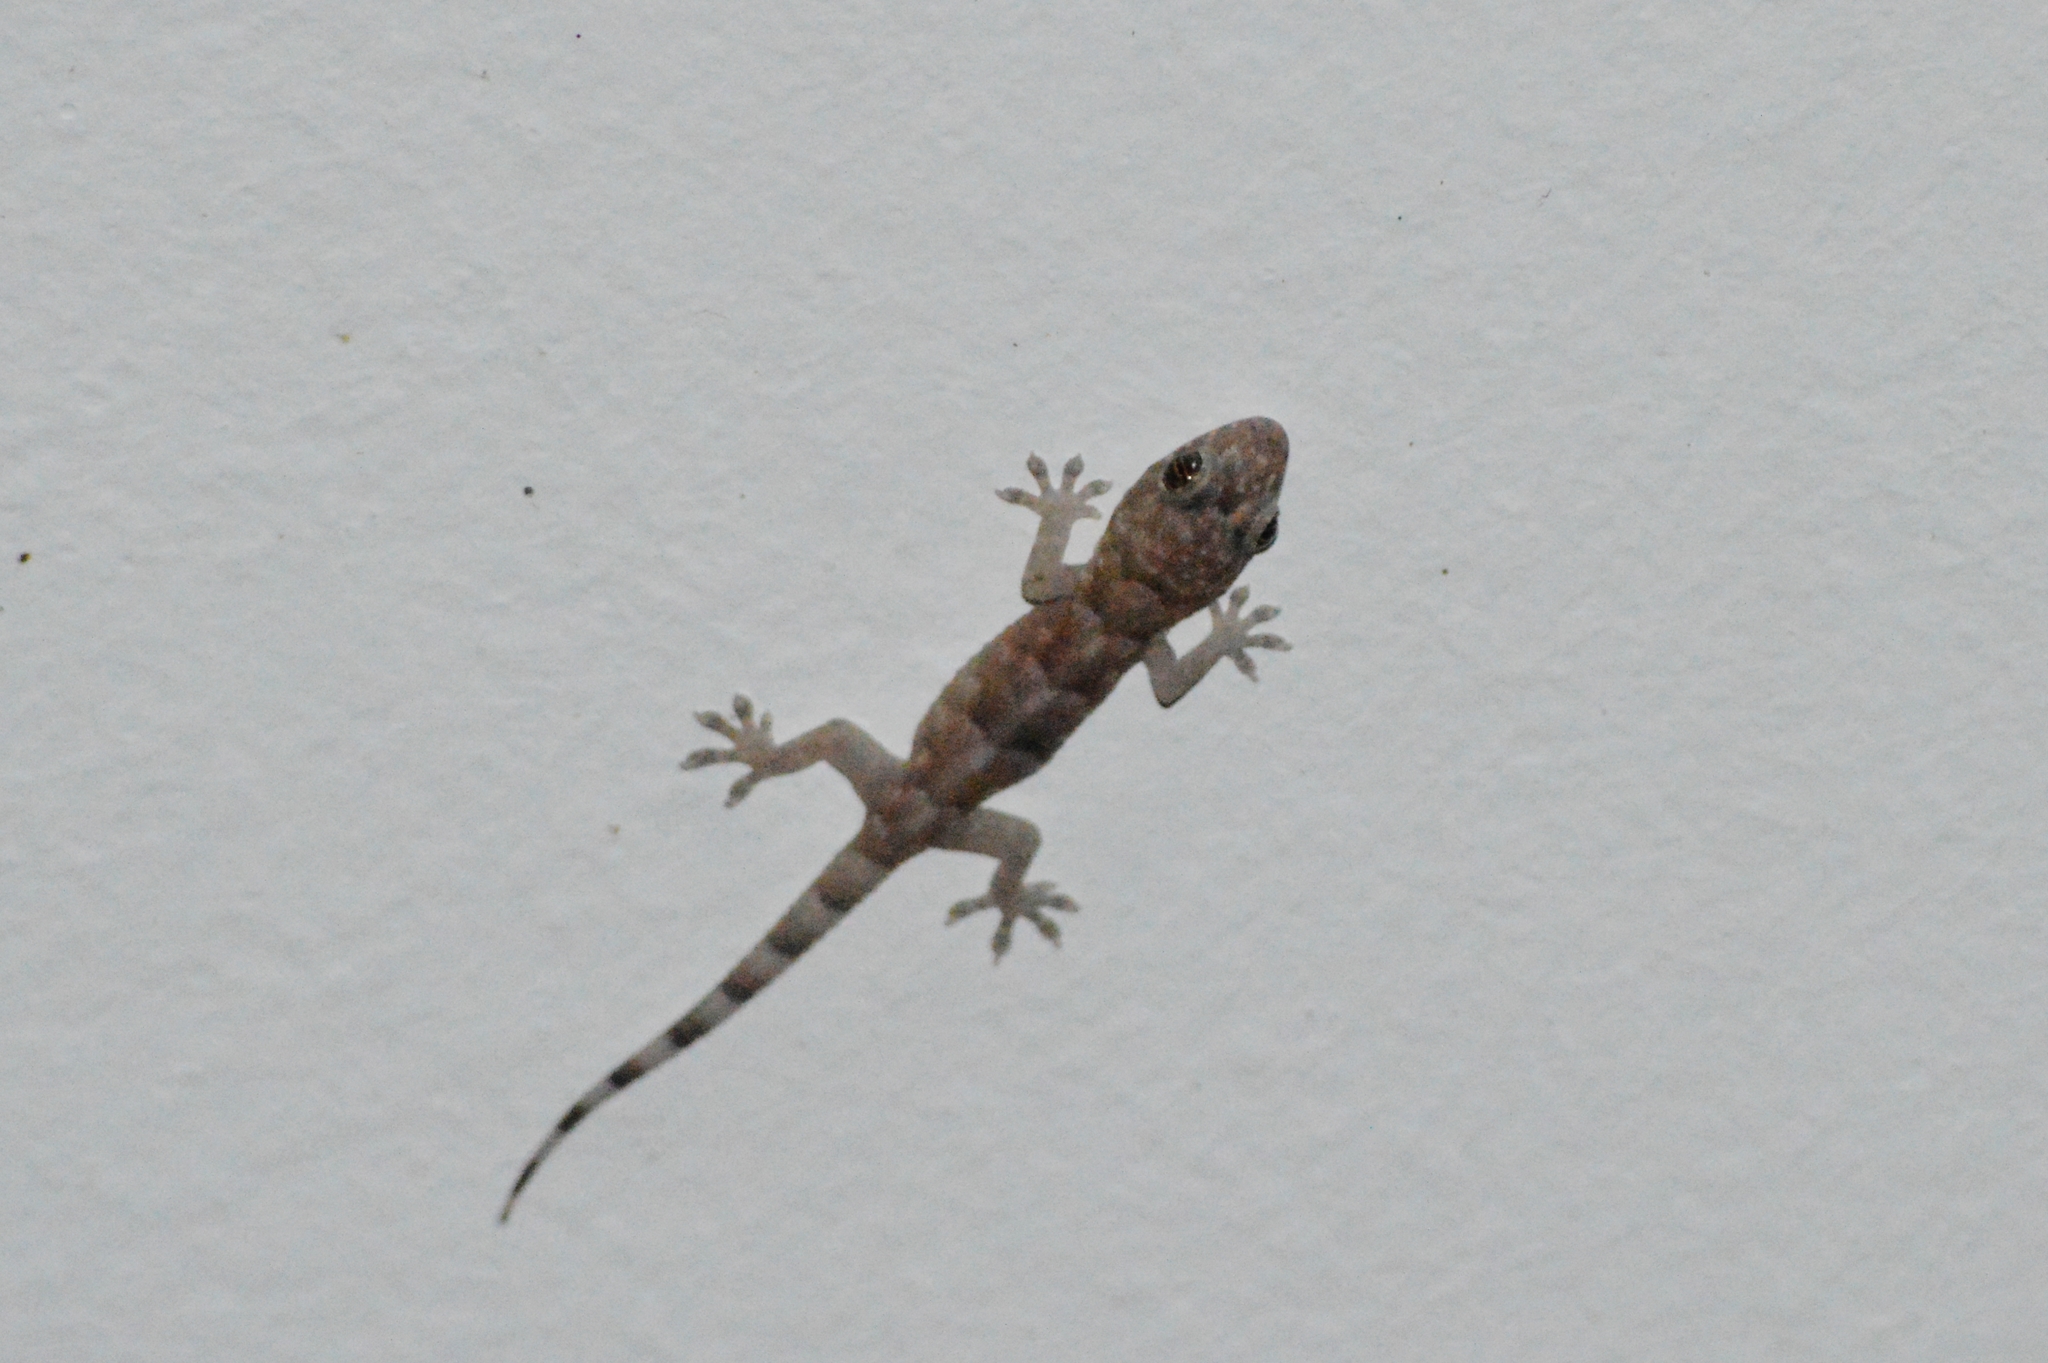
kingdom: Animalia
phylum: Chordata
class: Squamata
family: Gekkonidae
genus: Hemidactylus
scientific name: Hemidactylus mabouia
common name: House gecko
